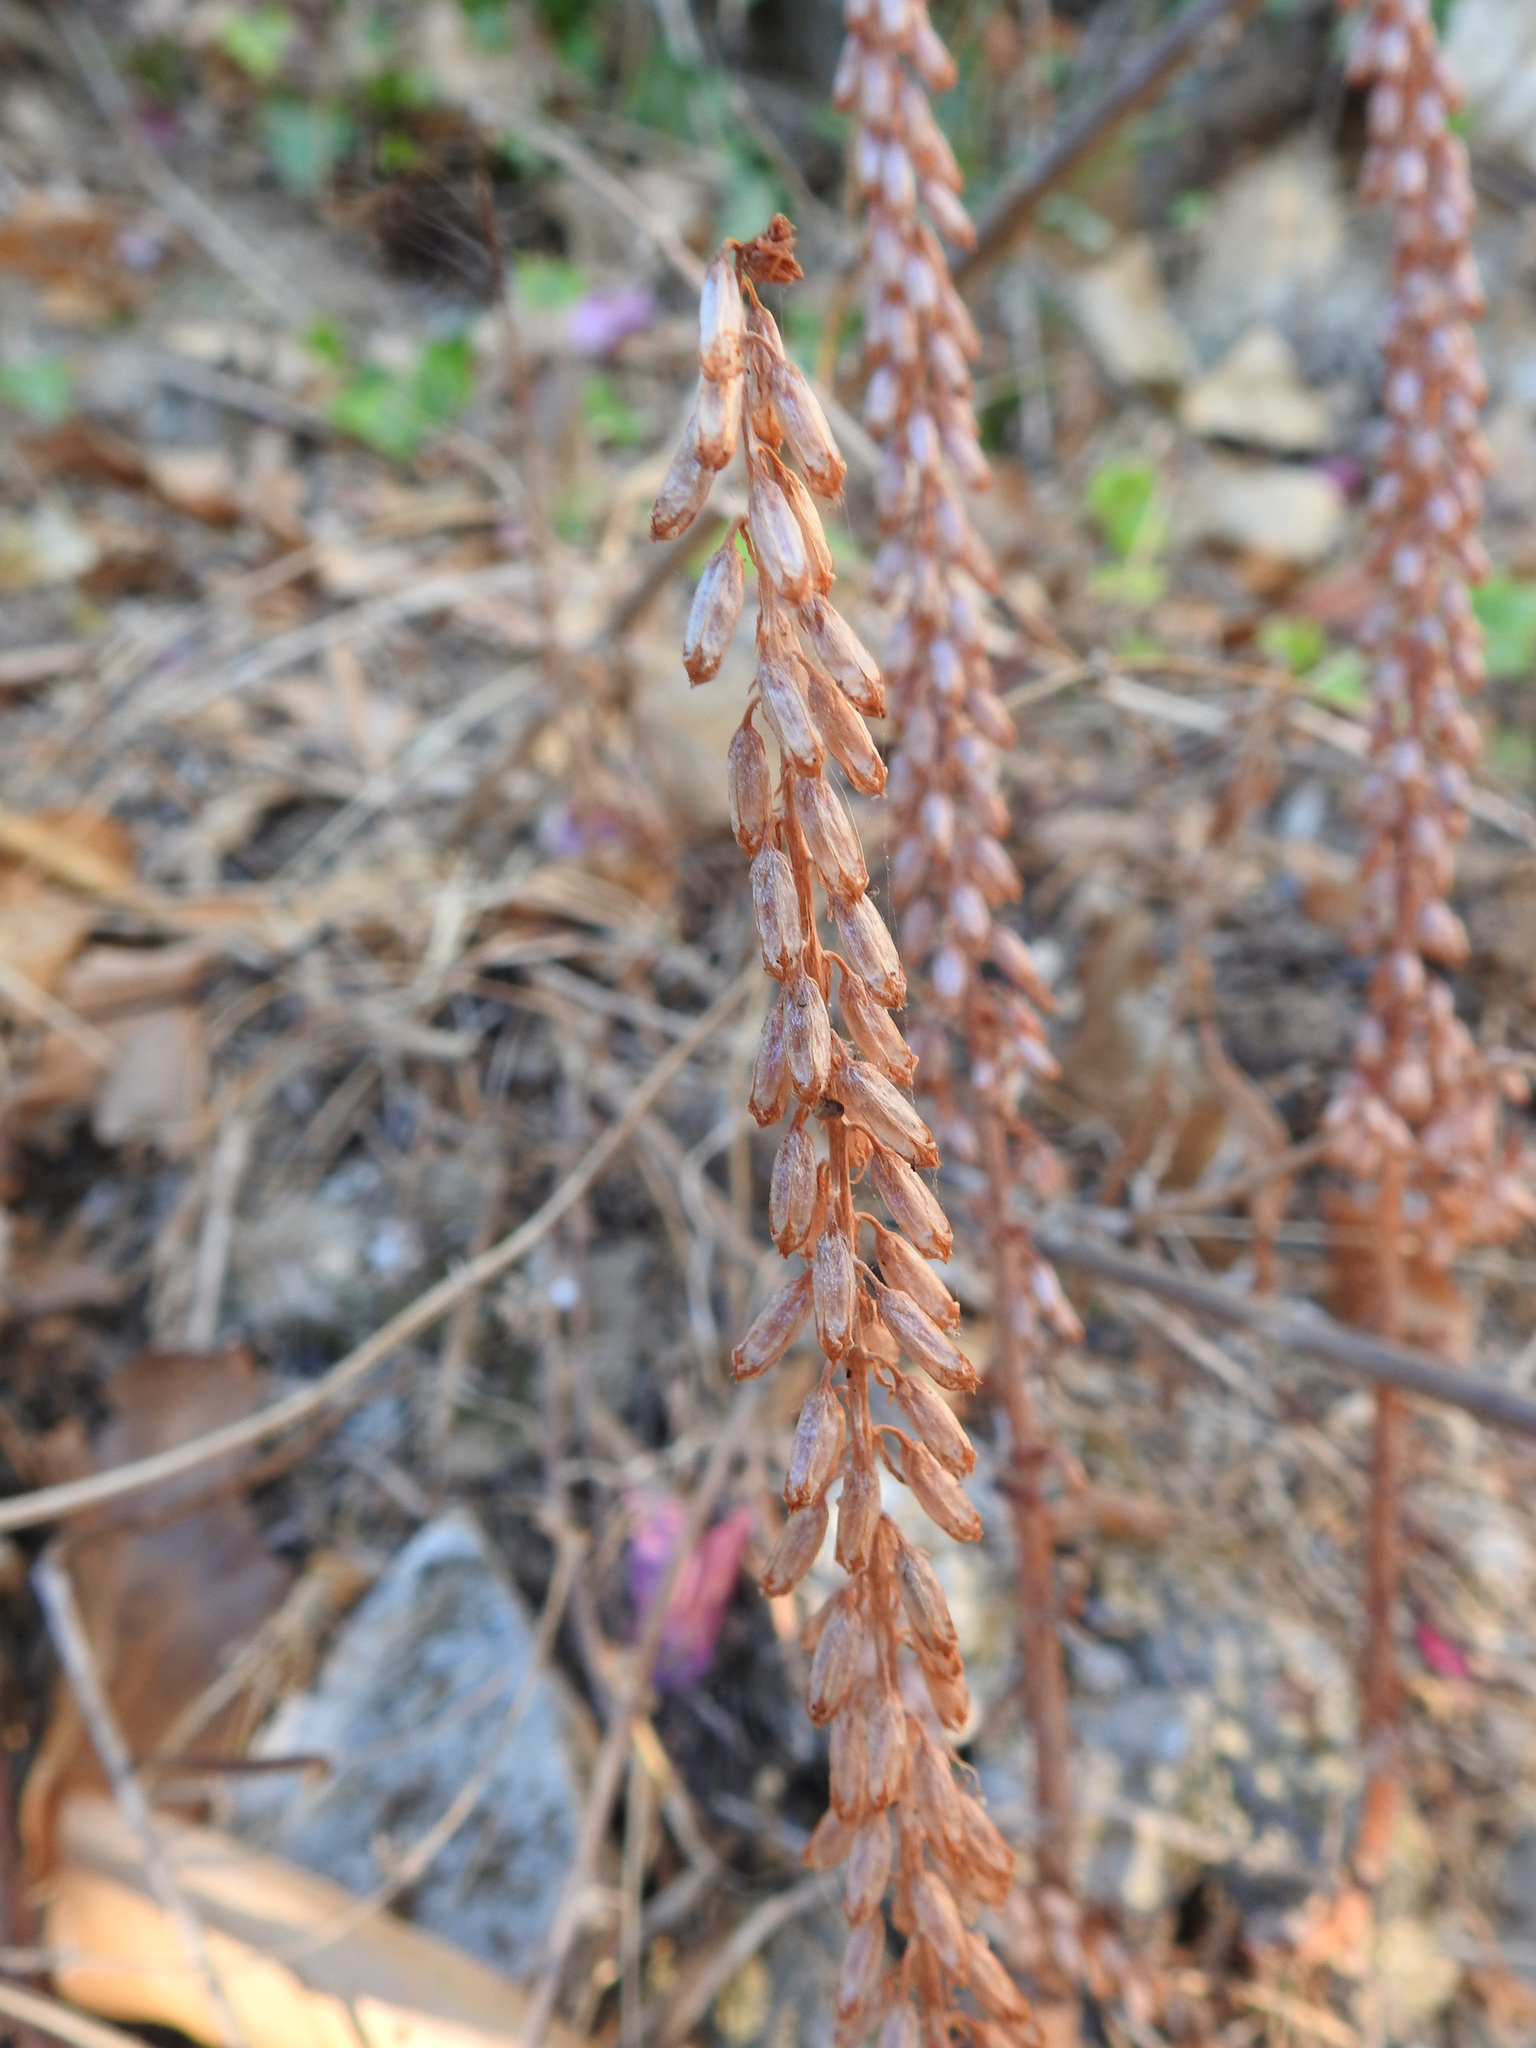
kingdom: Plantae
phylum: Tracheophyta
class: Magnoliopsida
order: Saxifragales
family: Crassulaceae
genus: Umbilicus
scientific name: Umbilicus rupestris
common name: Navelwort
